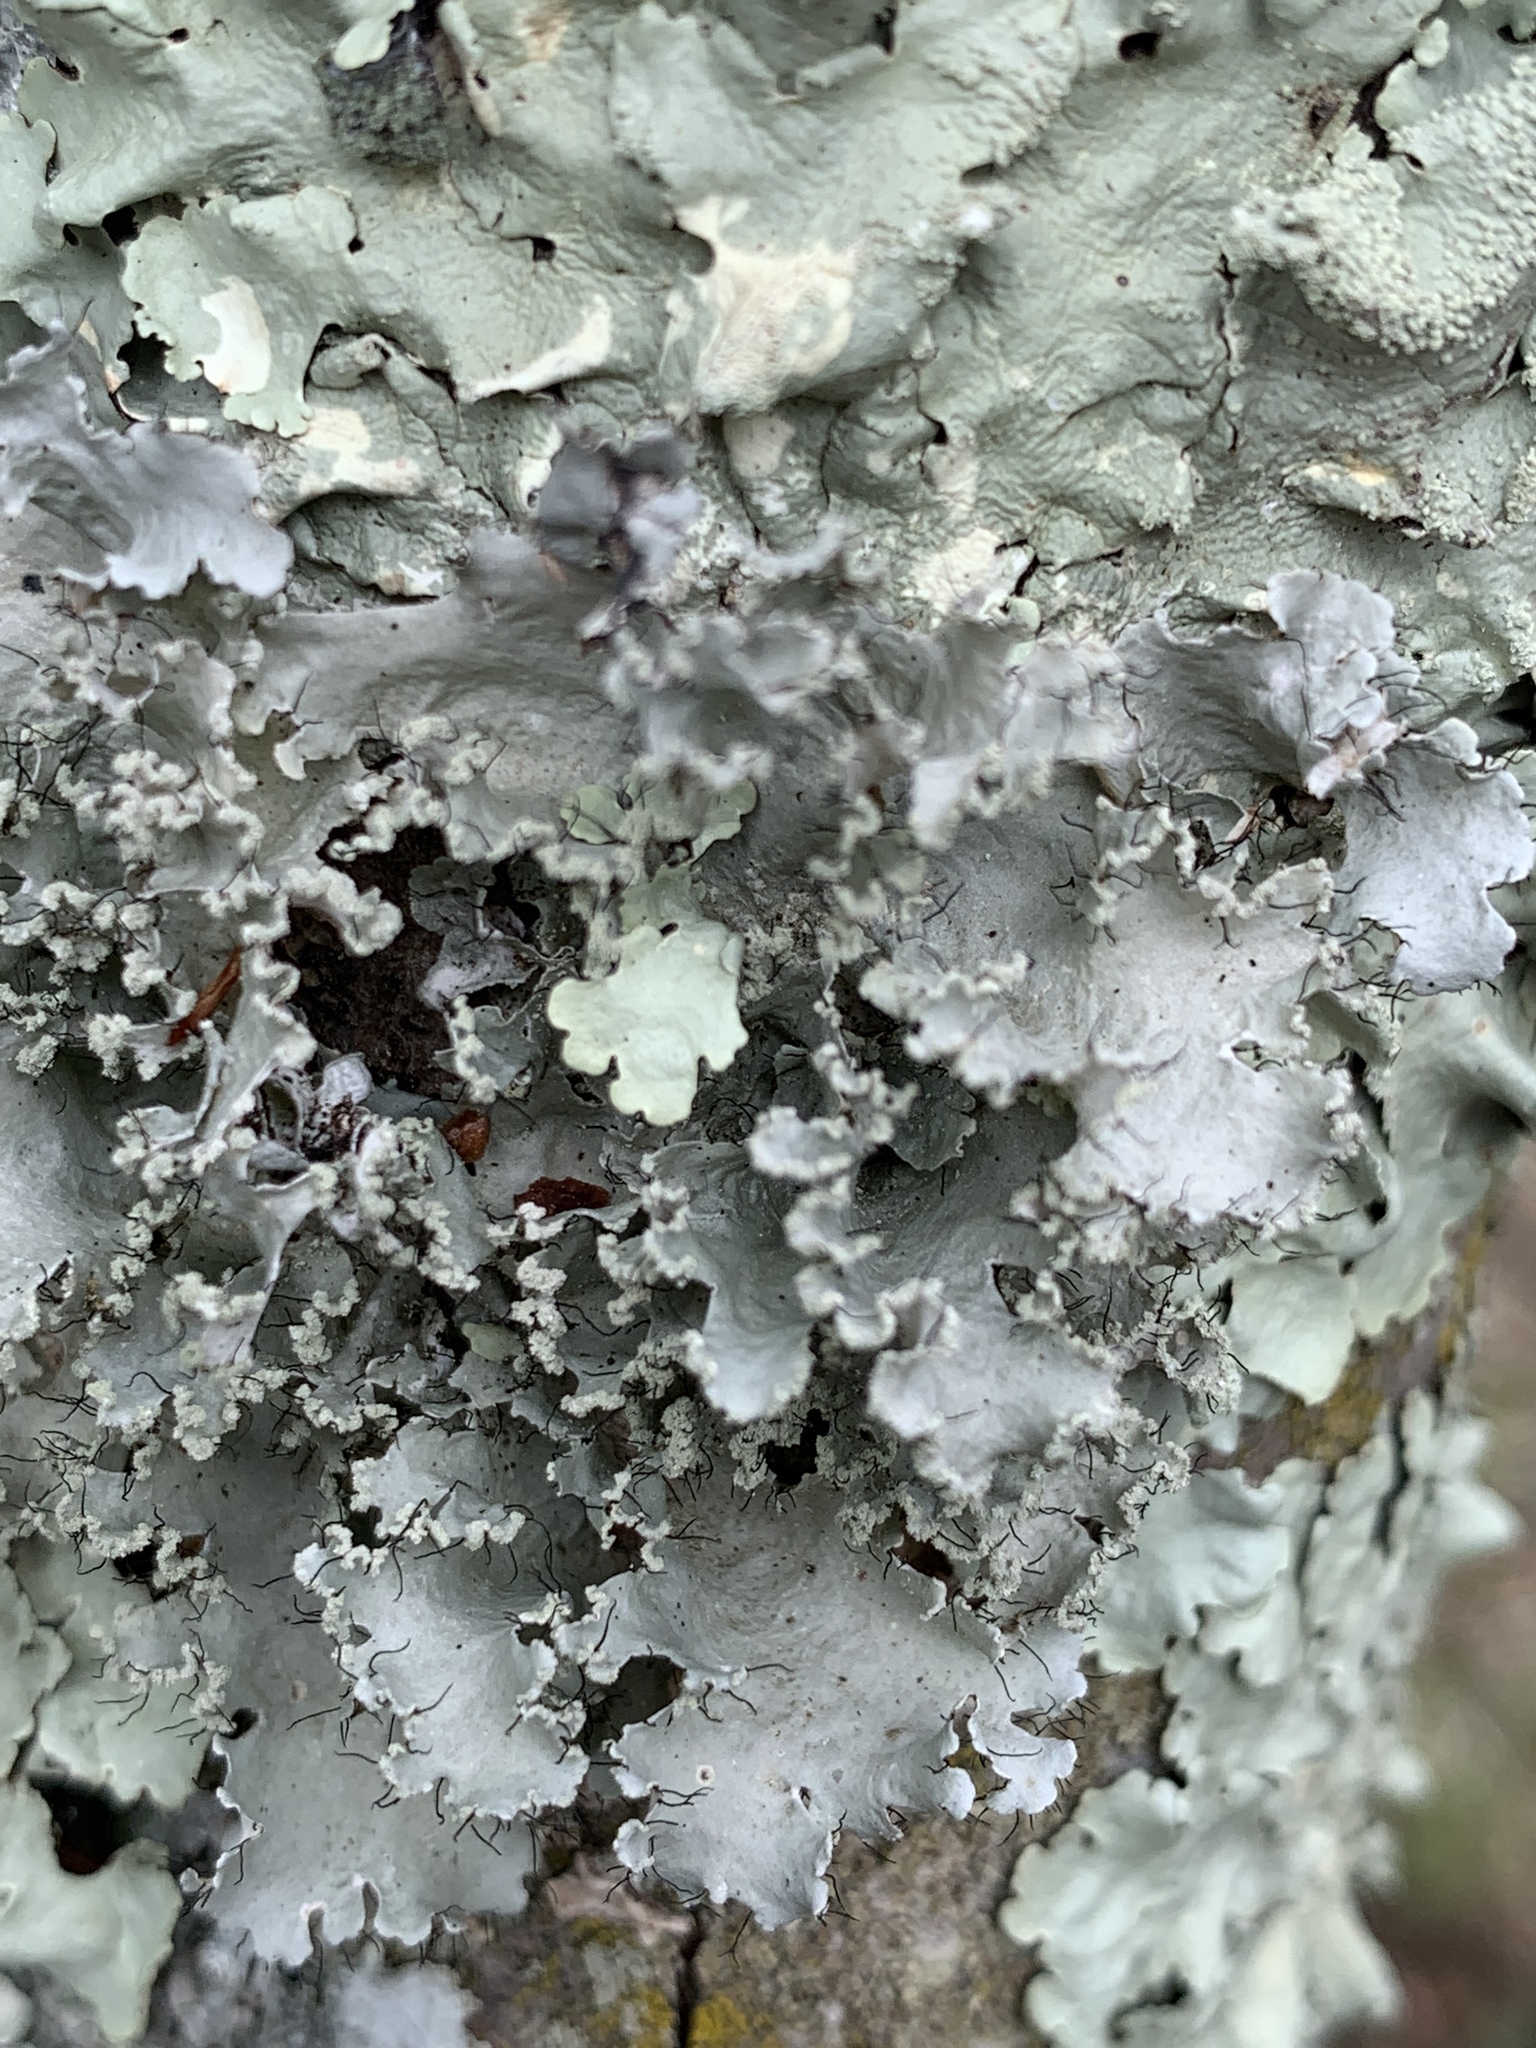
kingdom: Fungi
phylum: Ascomycota
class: Lecanoromycetes
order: Lecanorales
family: Parmeliaceae
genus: Parmotrema
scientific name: Parmotrema hypotropum
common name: Powdered ruffle lichen
